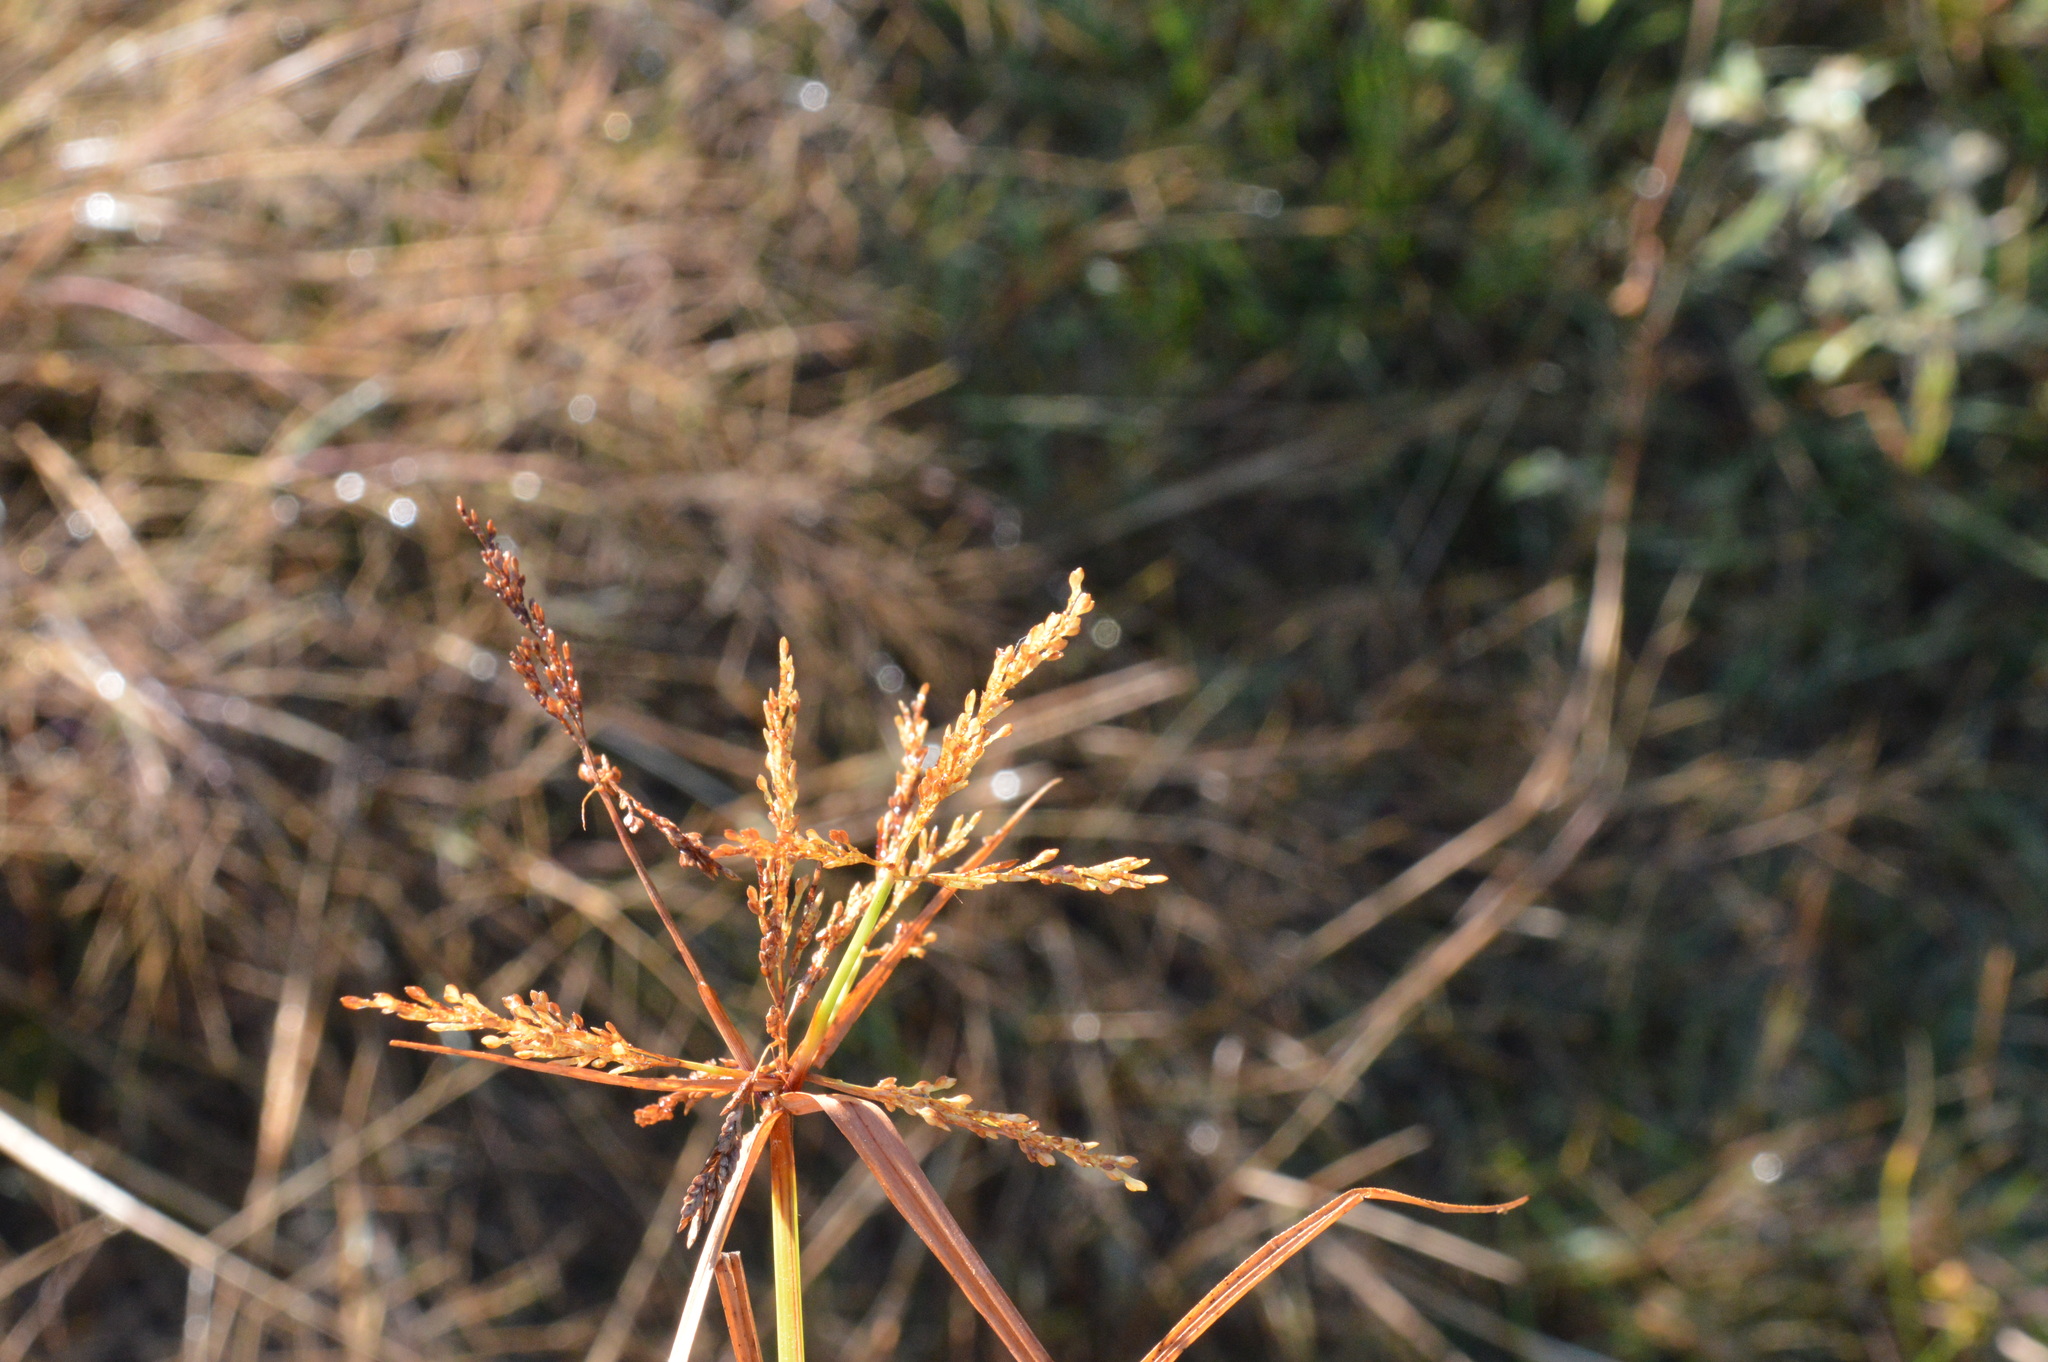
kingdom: Plantae
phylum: Tracheophyta
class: Liliopsida
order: Poales
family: Cyperaceae
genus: Cyperus
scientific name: Cyperus iria
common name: Ricefield flatsedge
